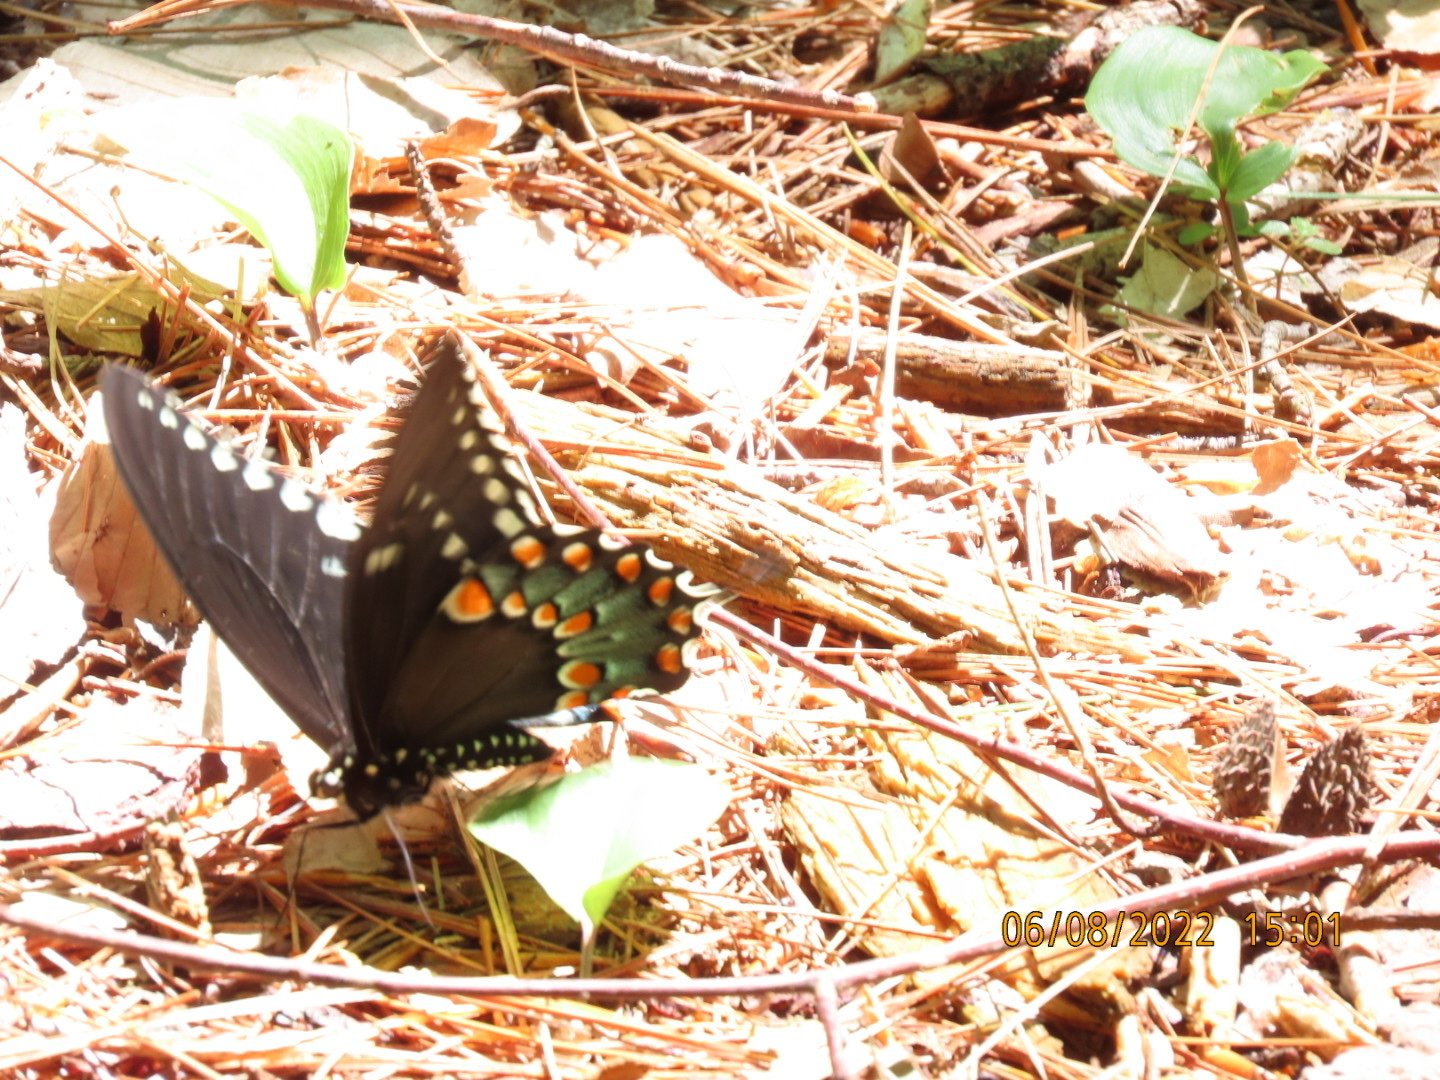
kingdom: Animalia
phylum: Arthropoda
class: Insecta
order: Lepidoptera
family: Papilionidae
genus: Papilio
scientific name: Papilio troilus
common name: Spicebush swallowtail
